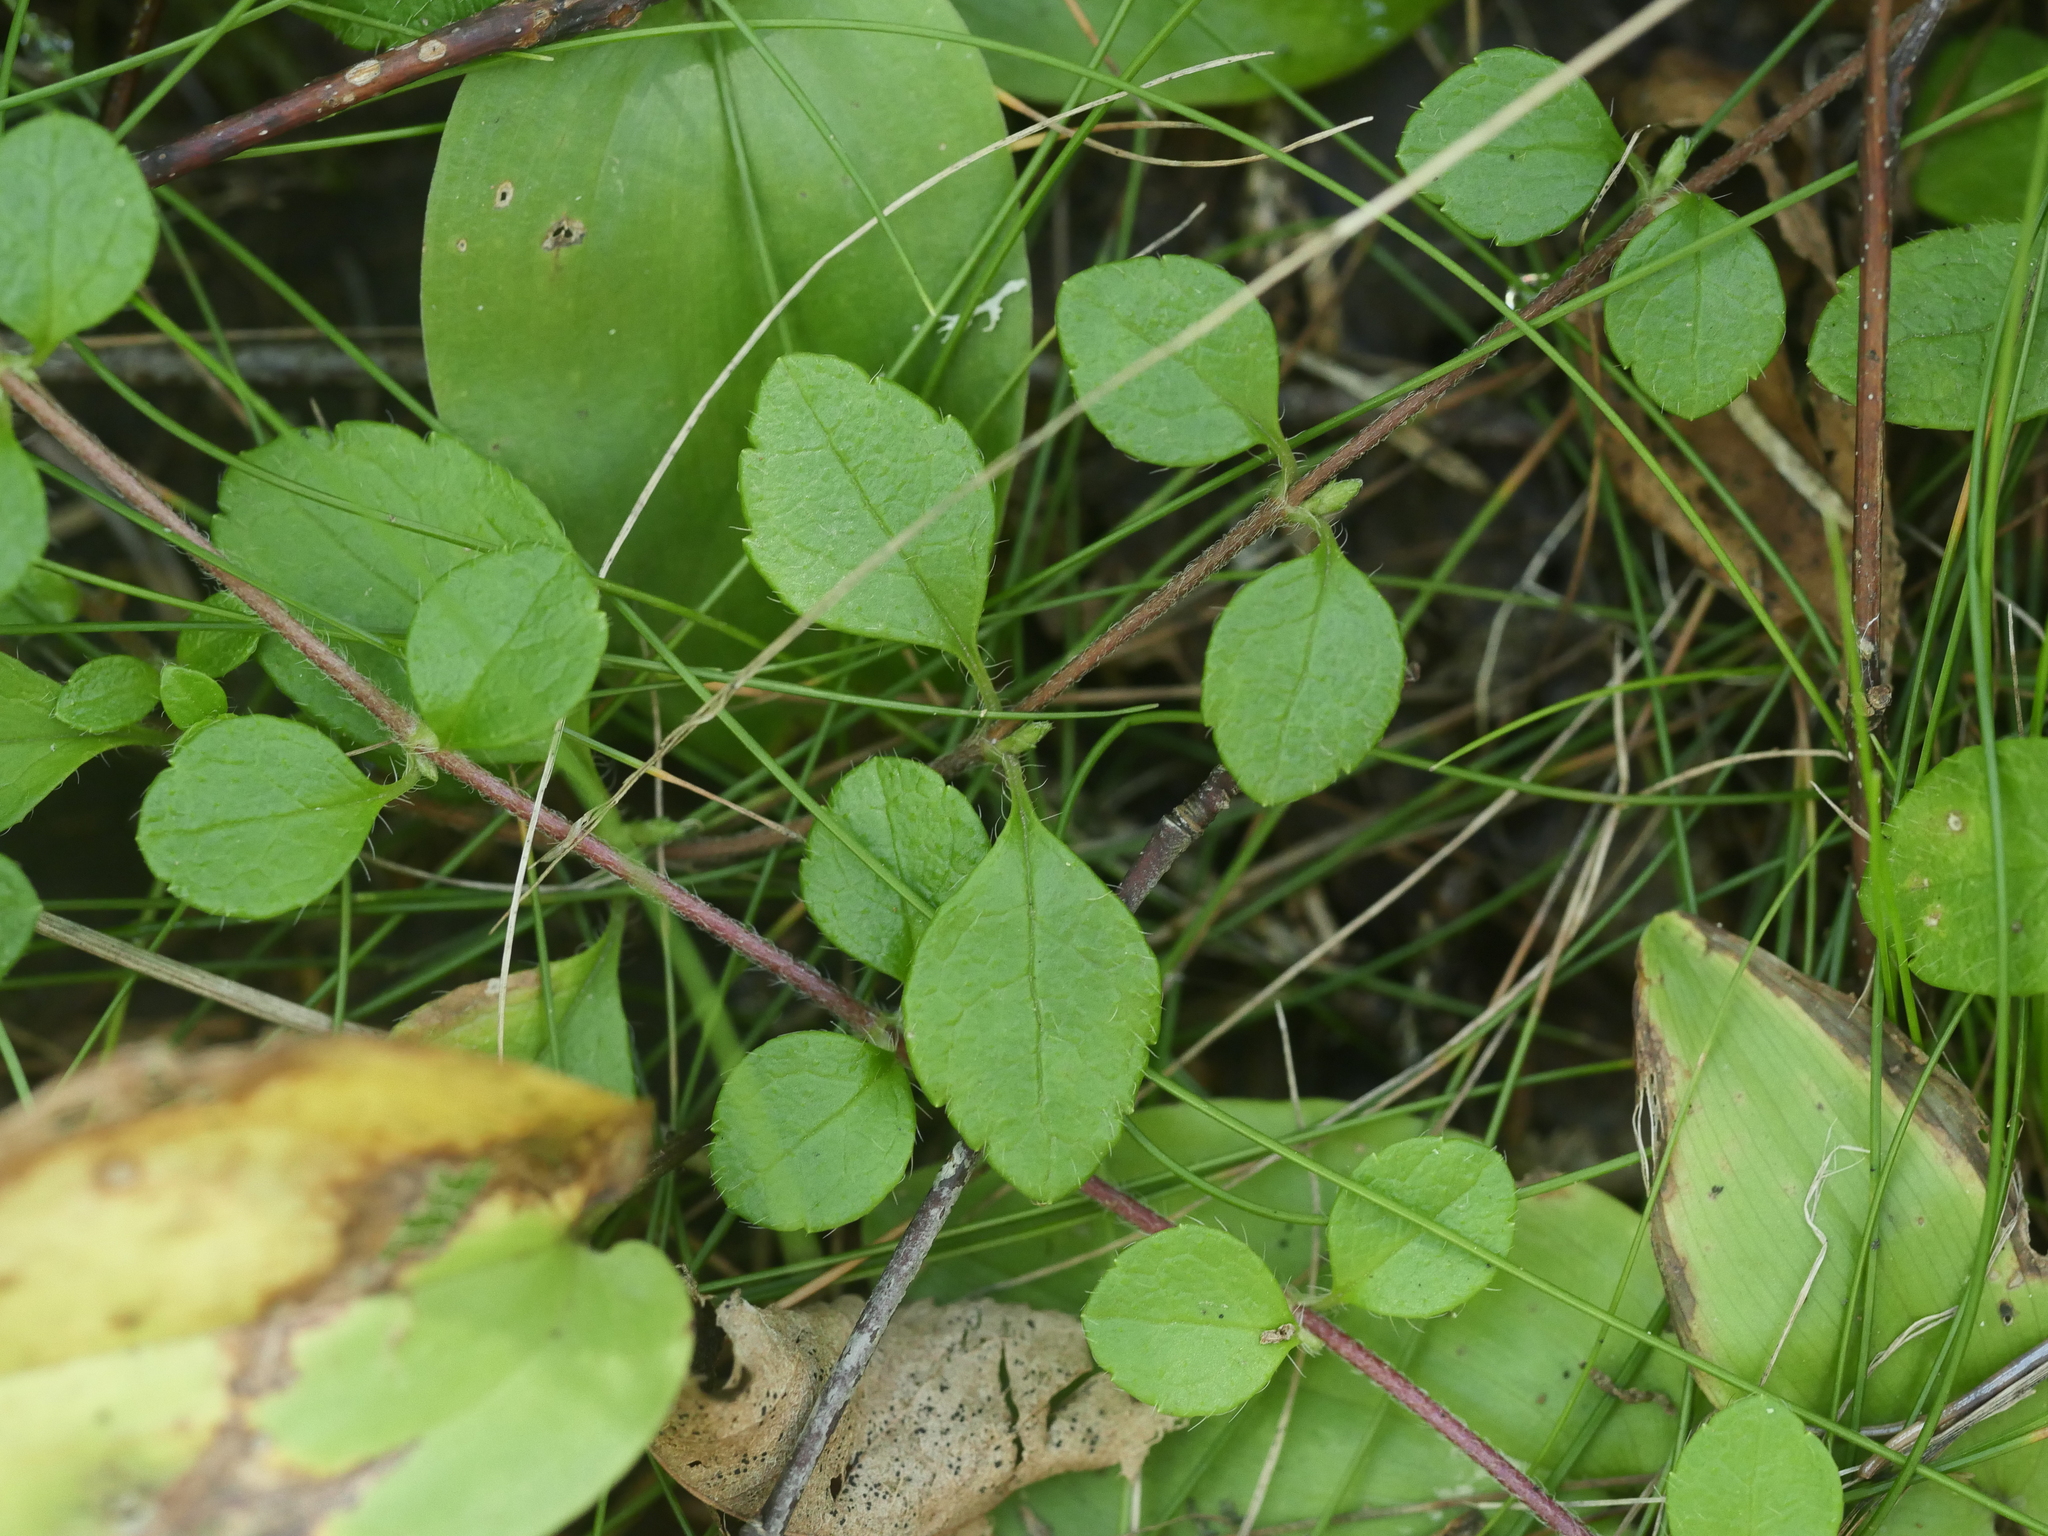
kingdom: Plantae
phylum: Tracheophyta
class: Magnoliopsida
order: Dipsacales
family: Caprifoliaceae
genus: Linnaea
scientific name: Linnaea borealis
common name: Twinflower
